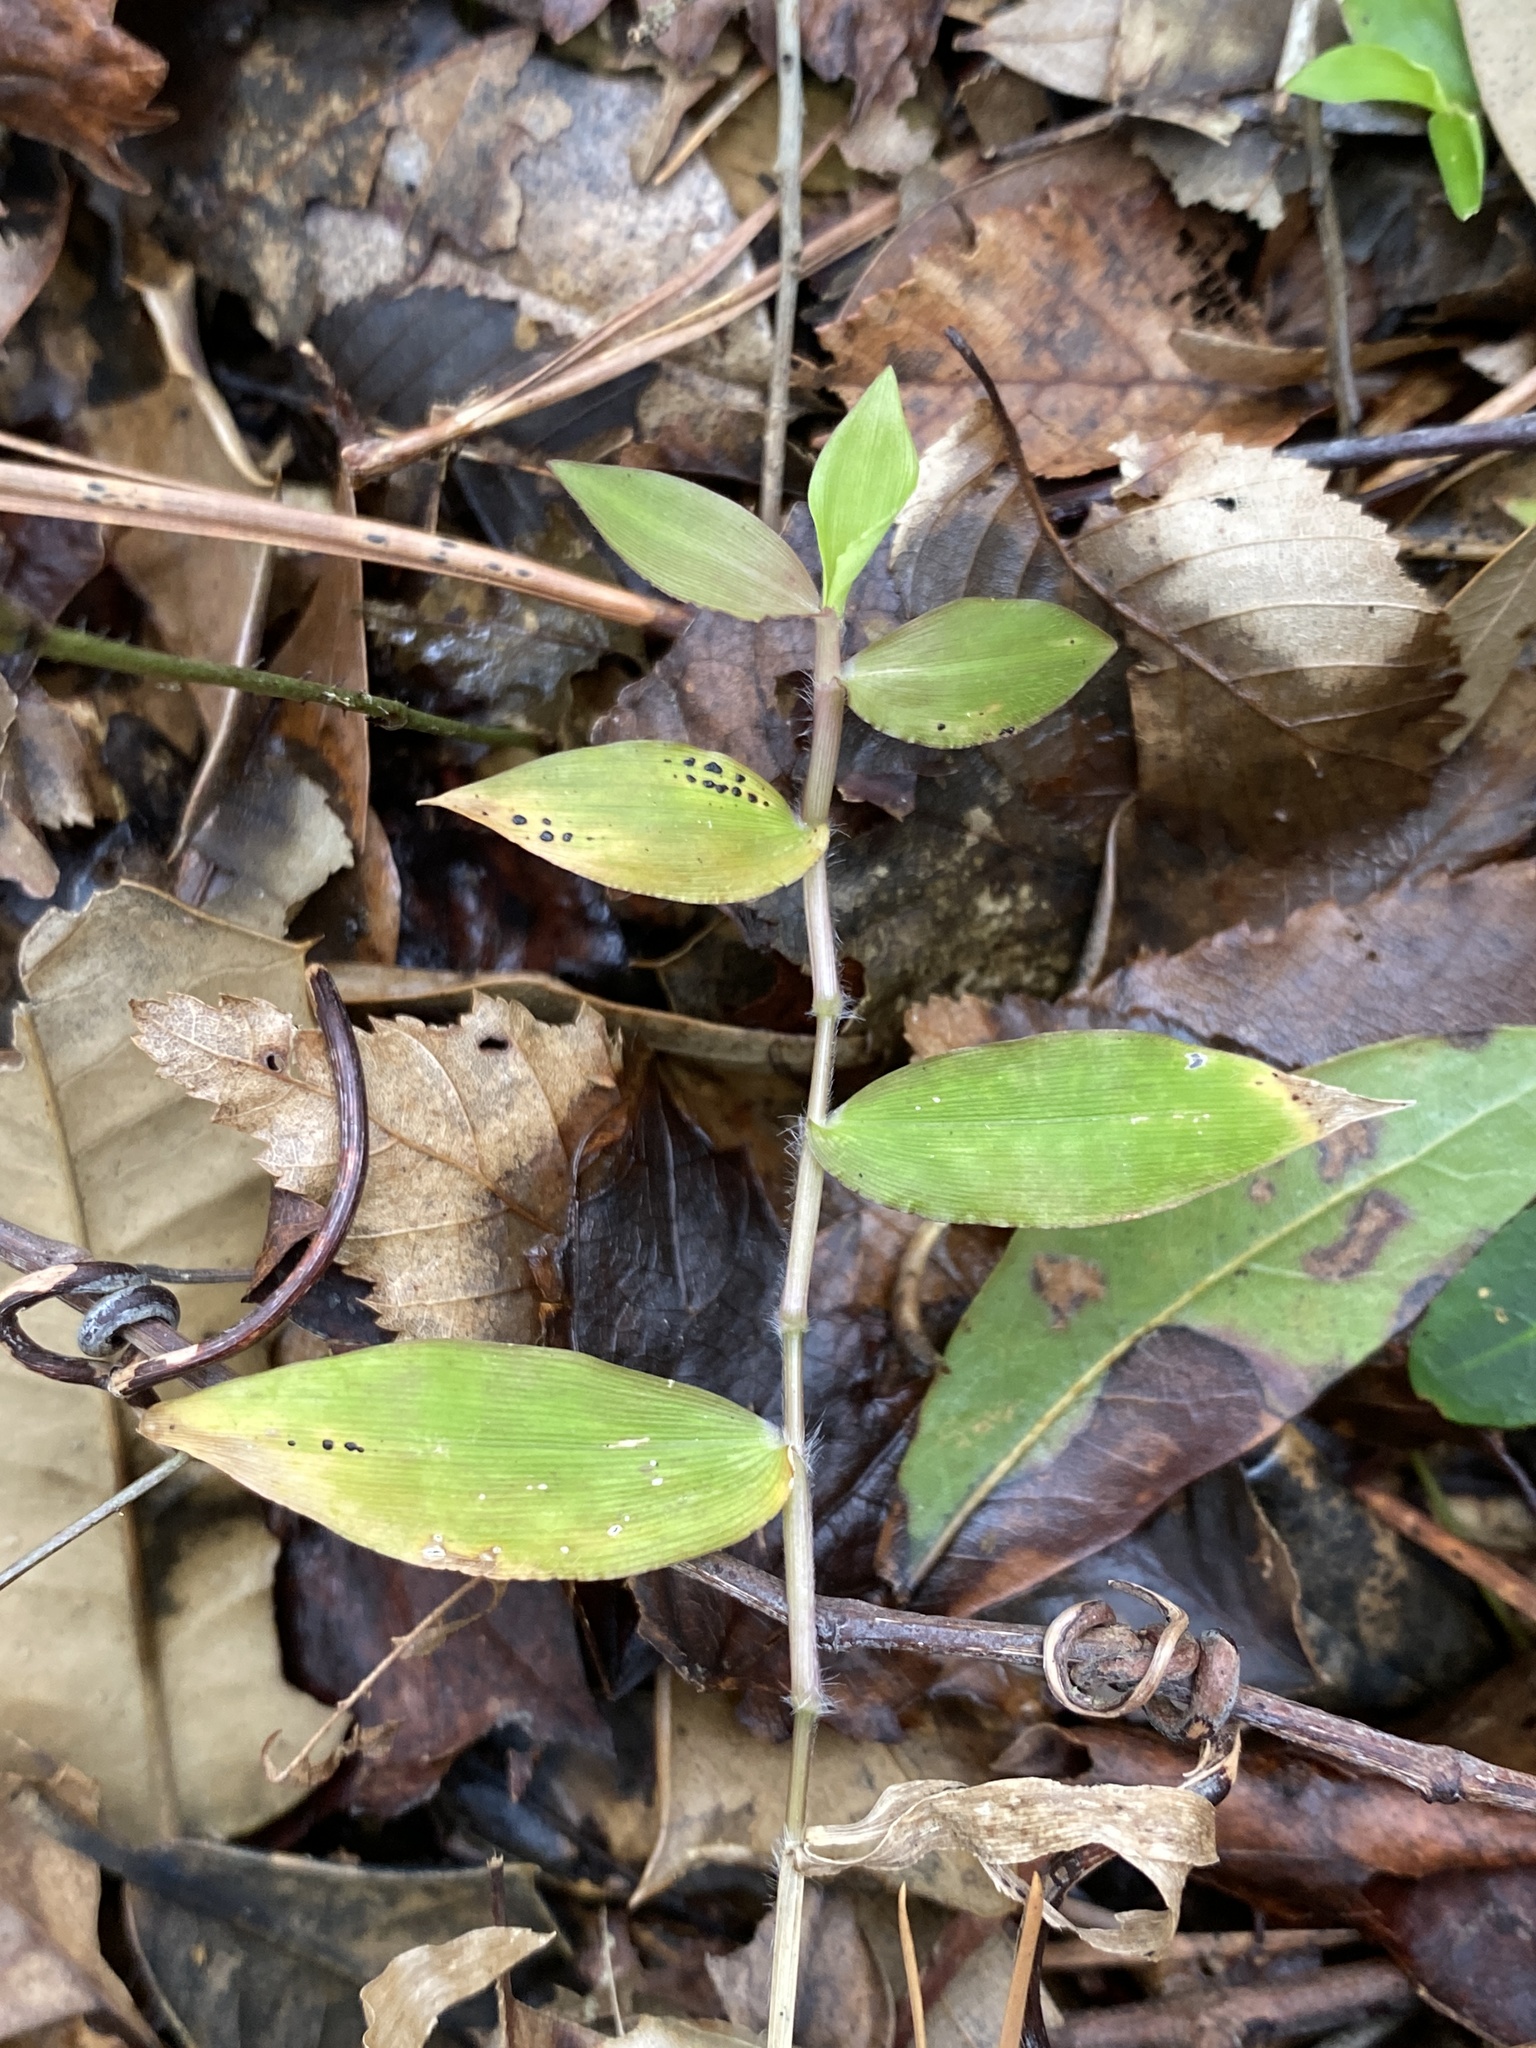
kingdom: Plantae
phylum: Tracheophyta
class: Liliopsida
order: Poales
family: Poaceae
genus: Oplismenus
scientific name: Oplismenus hirtellus
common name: Basketgrass
